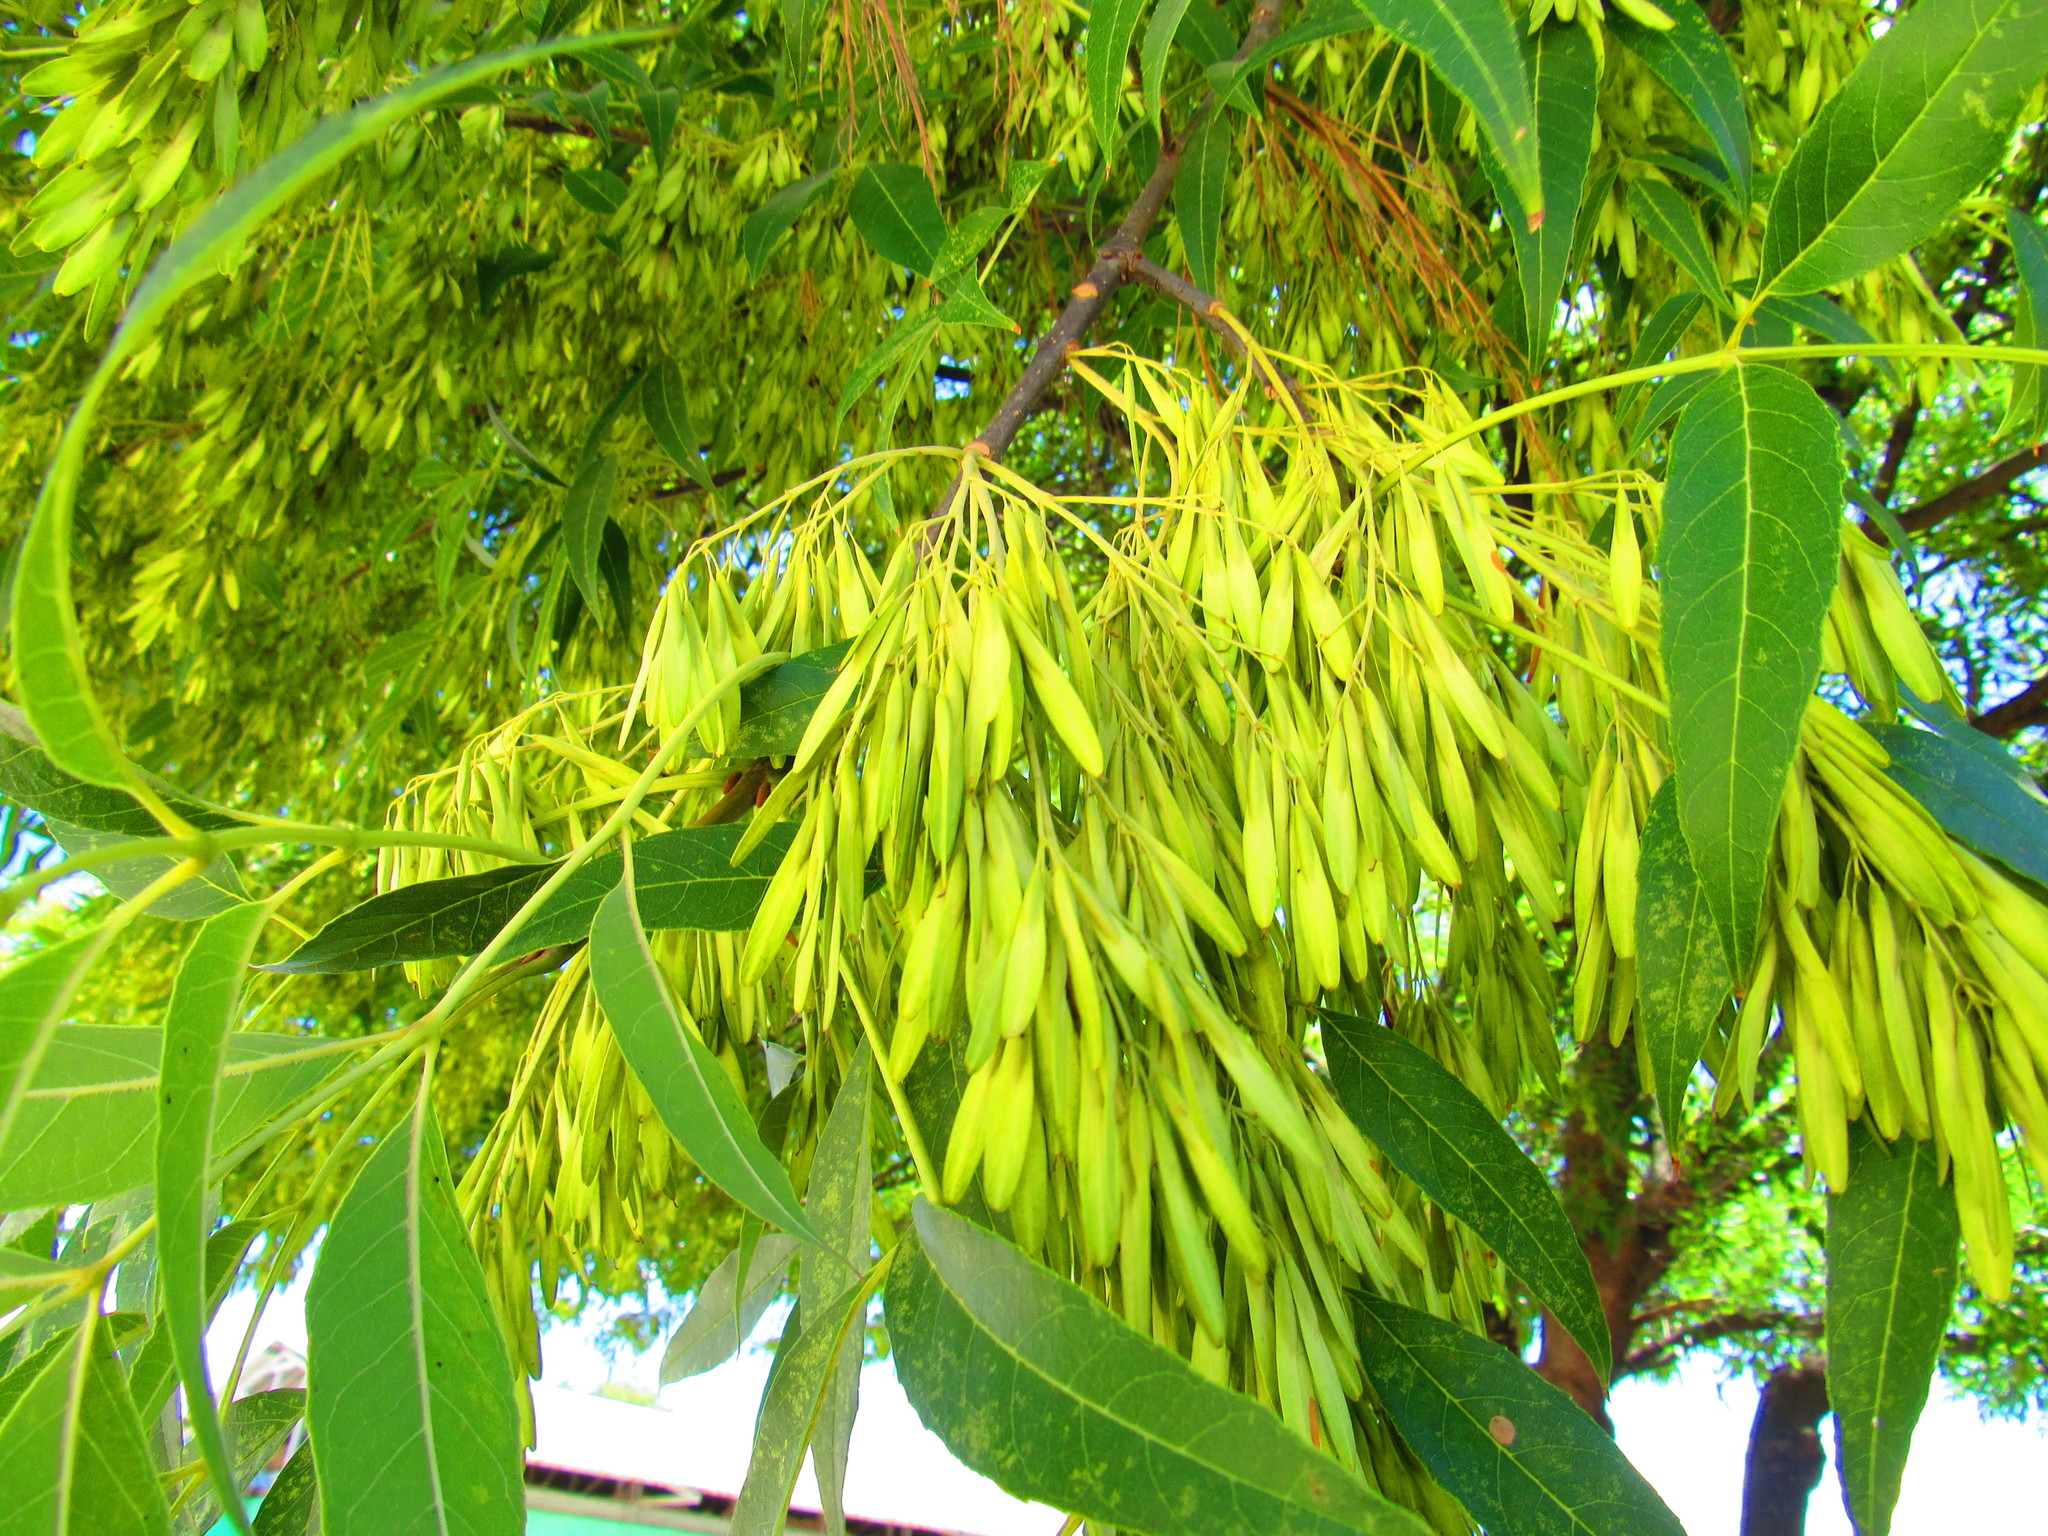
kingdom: Plantae
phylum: Tracheophyta
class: Magnoliopsida
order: Lamiales
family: Oleaceae
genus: Fraxinus
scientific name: Fraxinus uhdei
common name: Shamel ash
